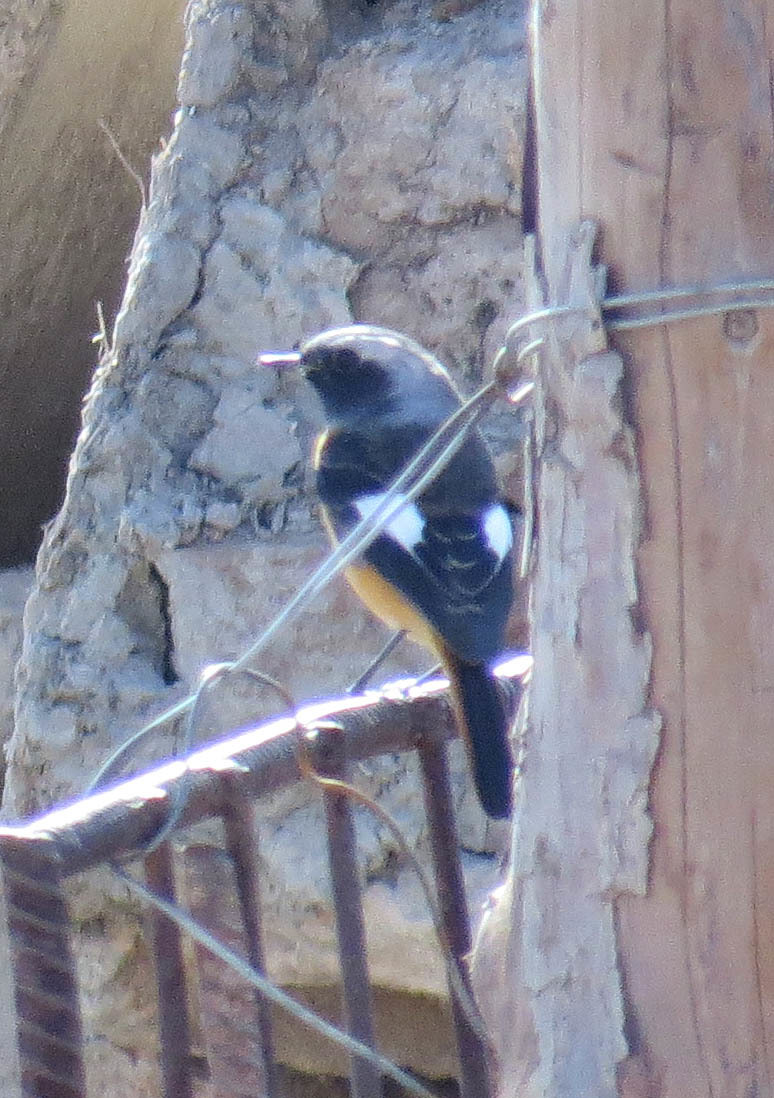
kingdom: Animalia
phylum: Chordata
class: Aves
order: Passeriformes
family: Muscicapidae
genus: Phoenicurus
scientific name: Phoenicurus auroreus
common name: Daurian redstart
